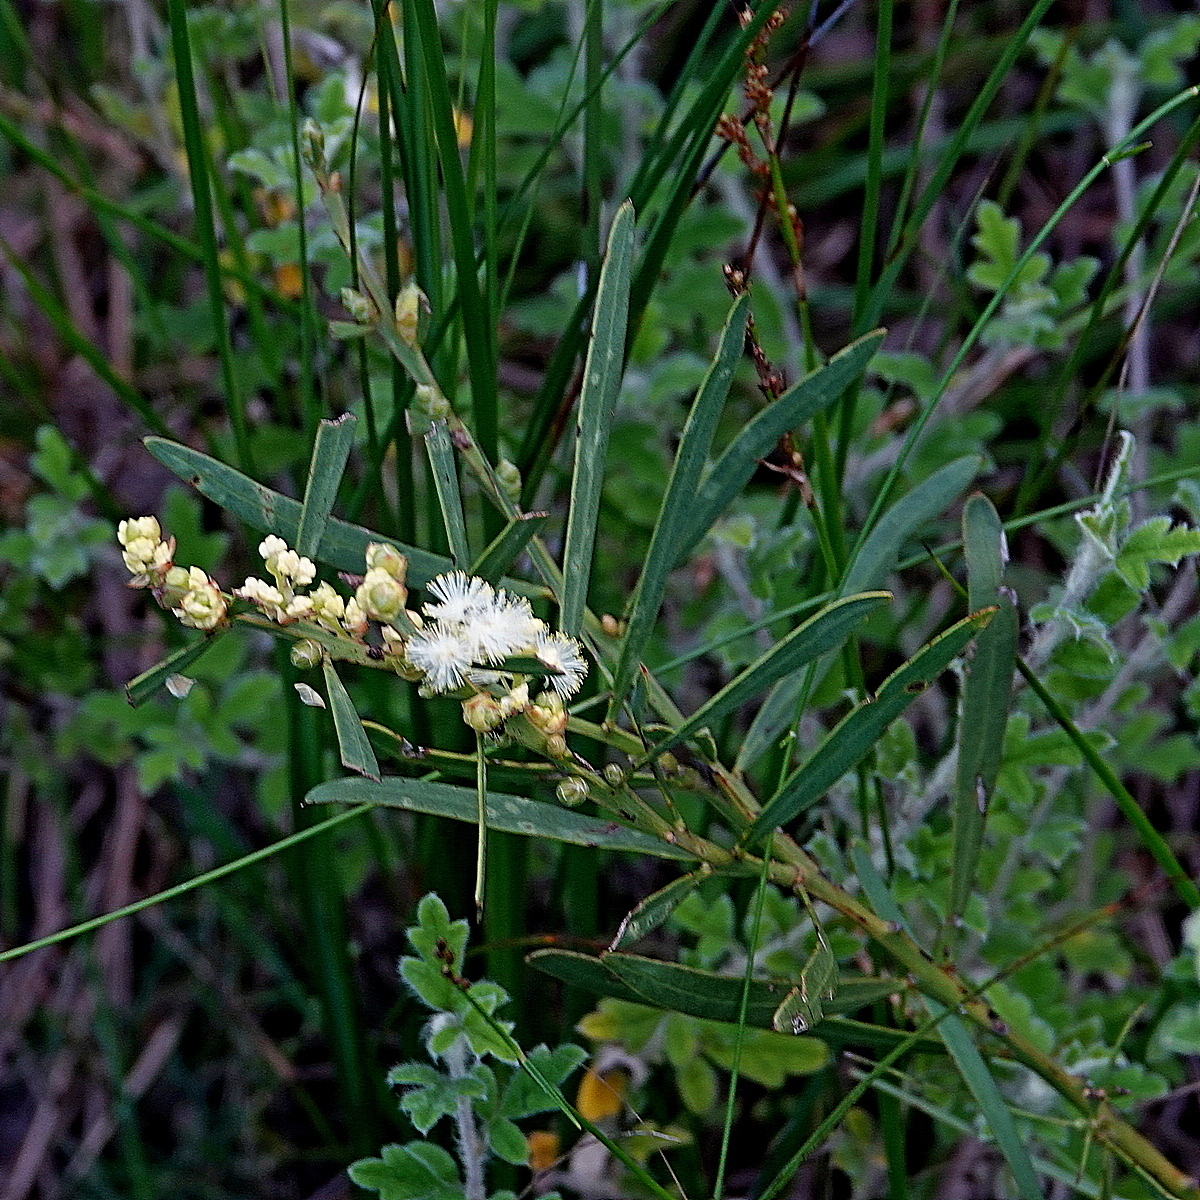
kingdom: Plantae
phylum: Tracheophyta
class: Magnoliopsida
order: Fabales
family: Fabaceae
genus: Acacia
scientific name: Acacia suaveolens
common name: Sweet acacia
